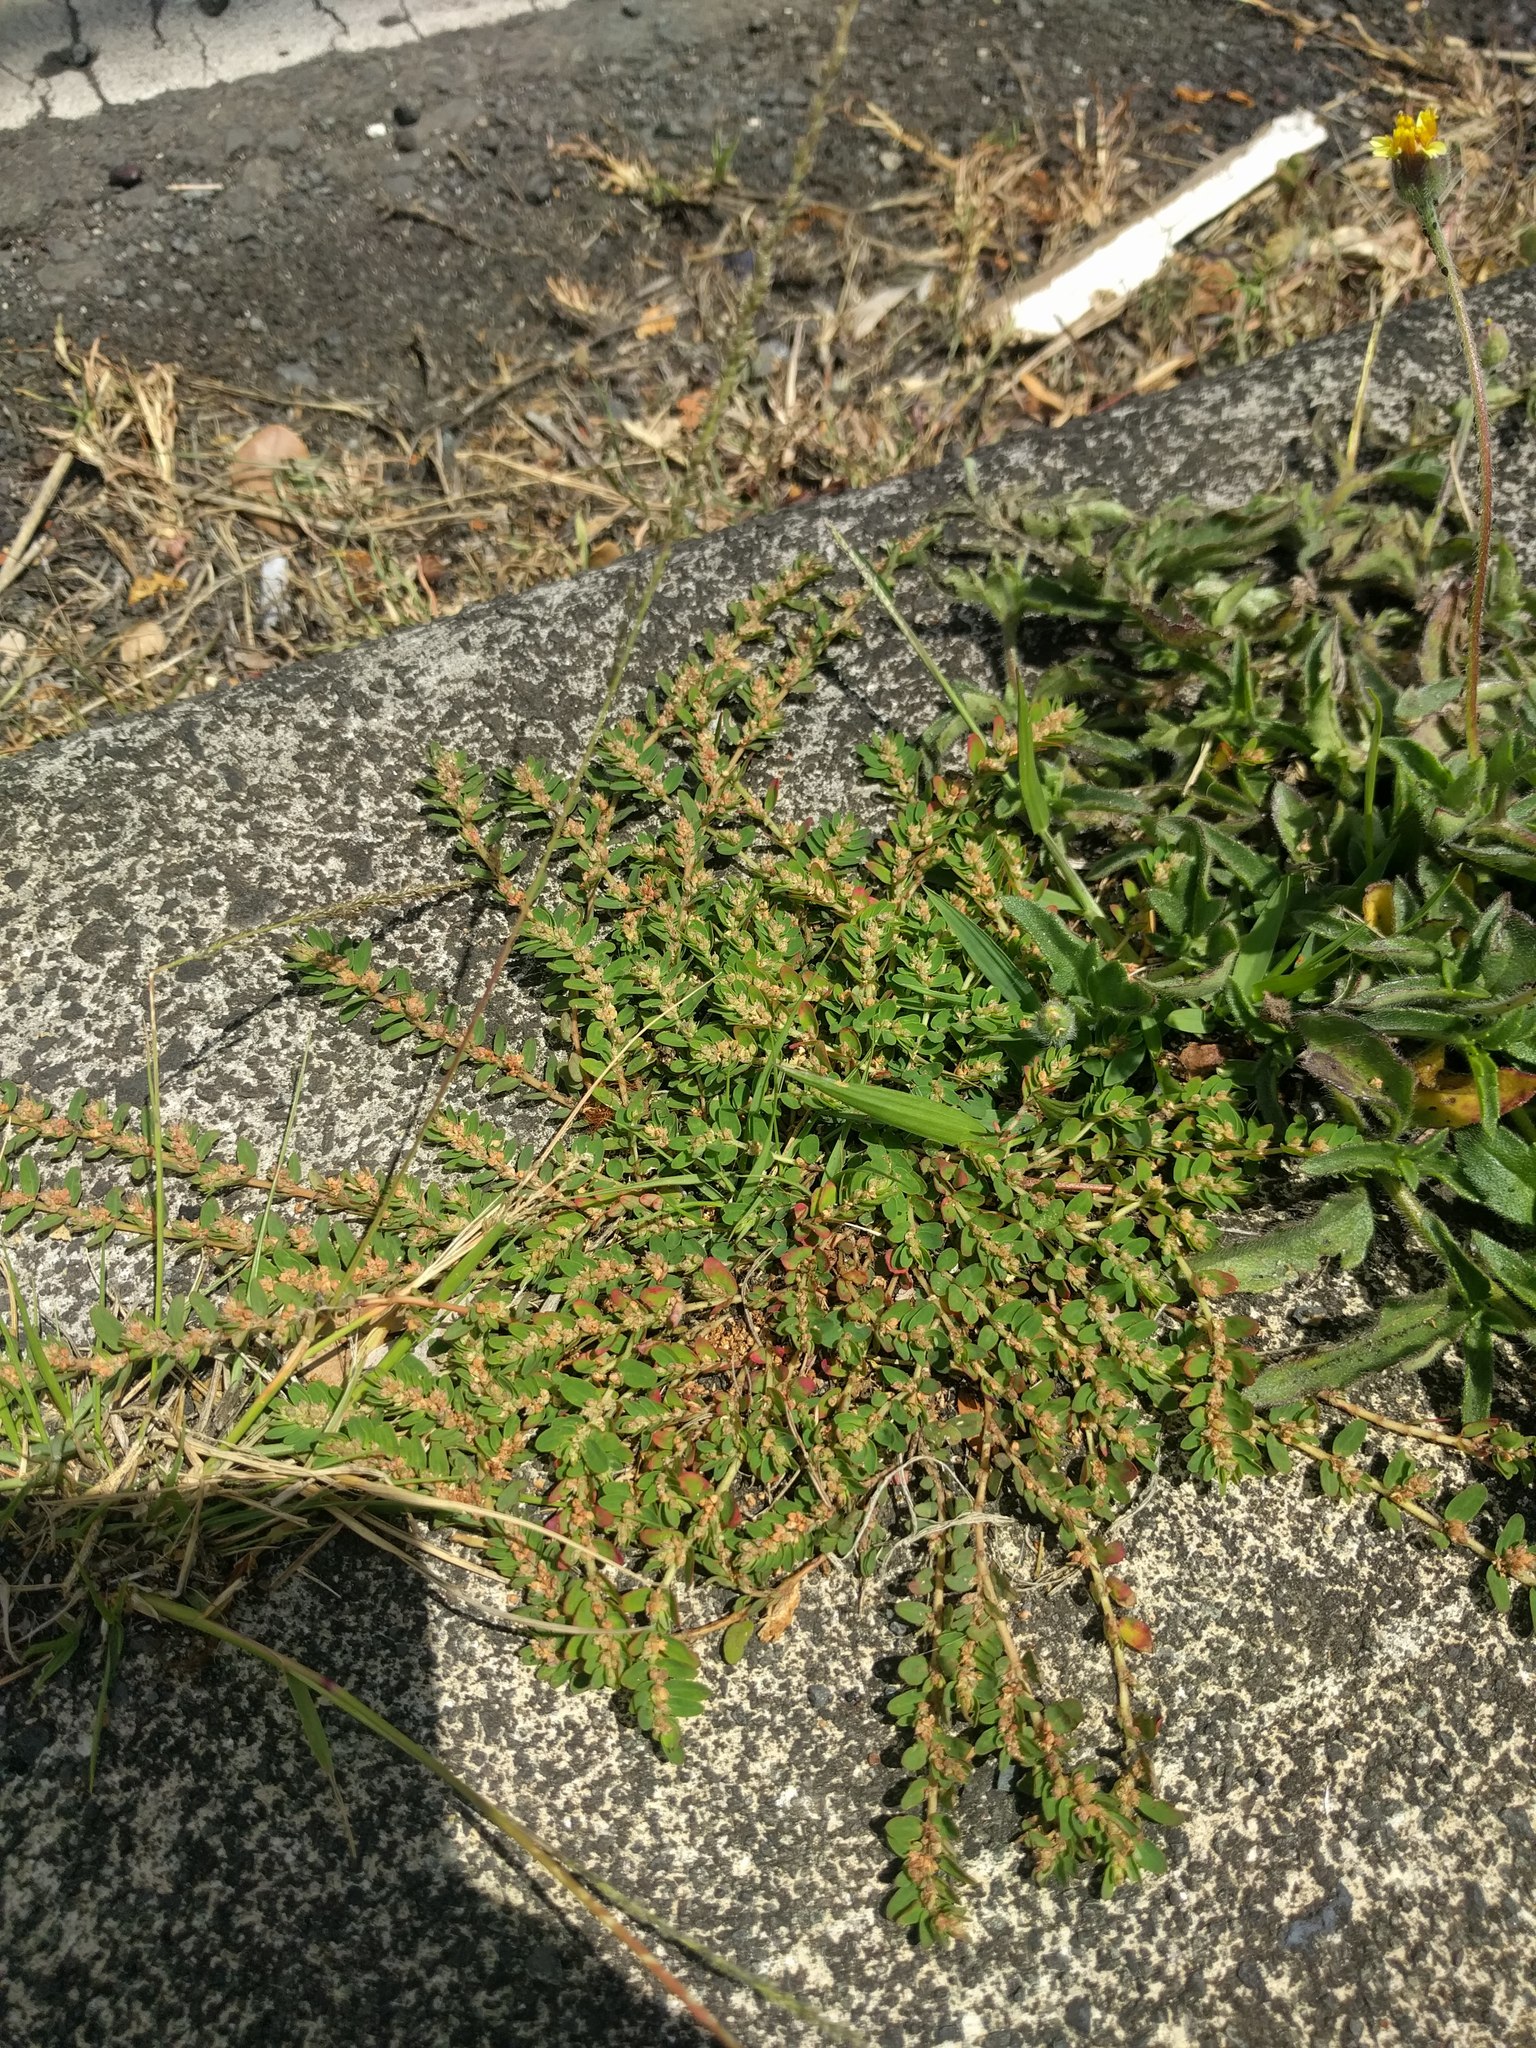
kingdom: Plantae
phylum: Tracheophyta
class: Magnoliopsida
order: Malpighiales
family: Euphorbiaceae
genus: Euphorbia
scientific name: Euphorbia thymifolia
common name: Gulf sandmat
